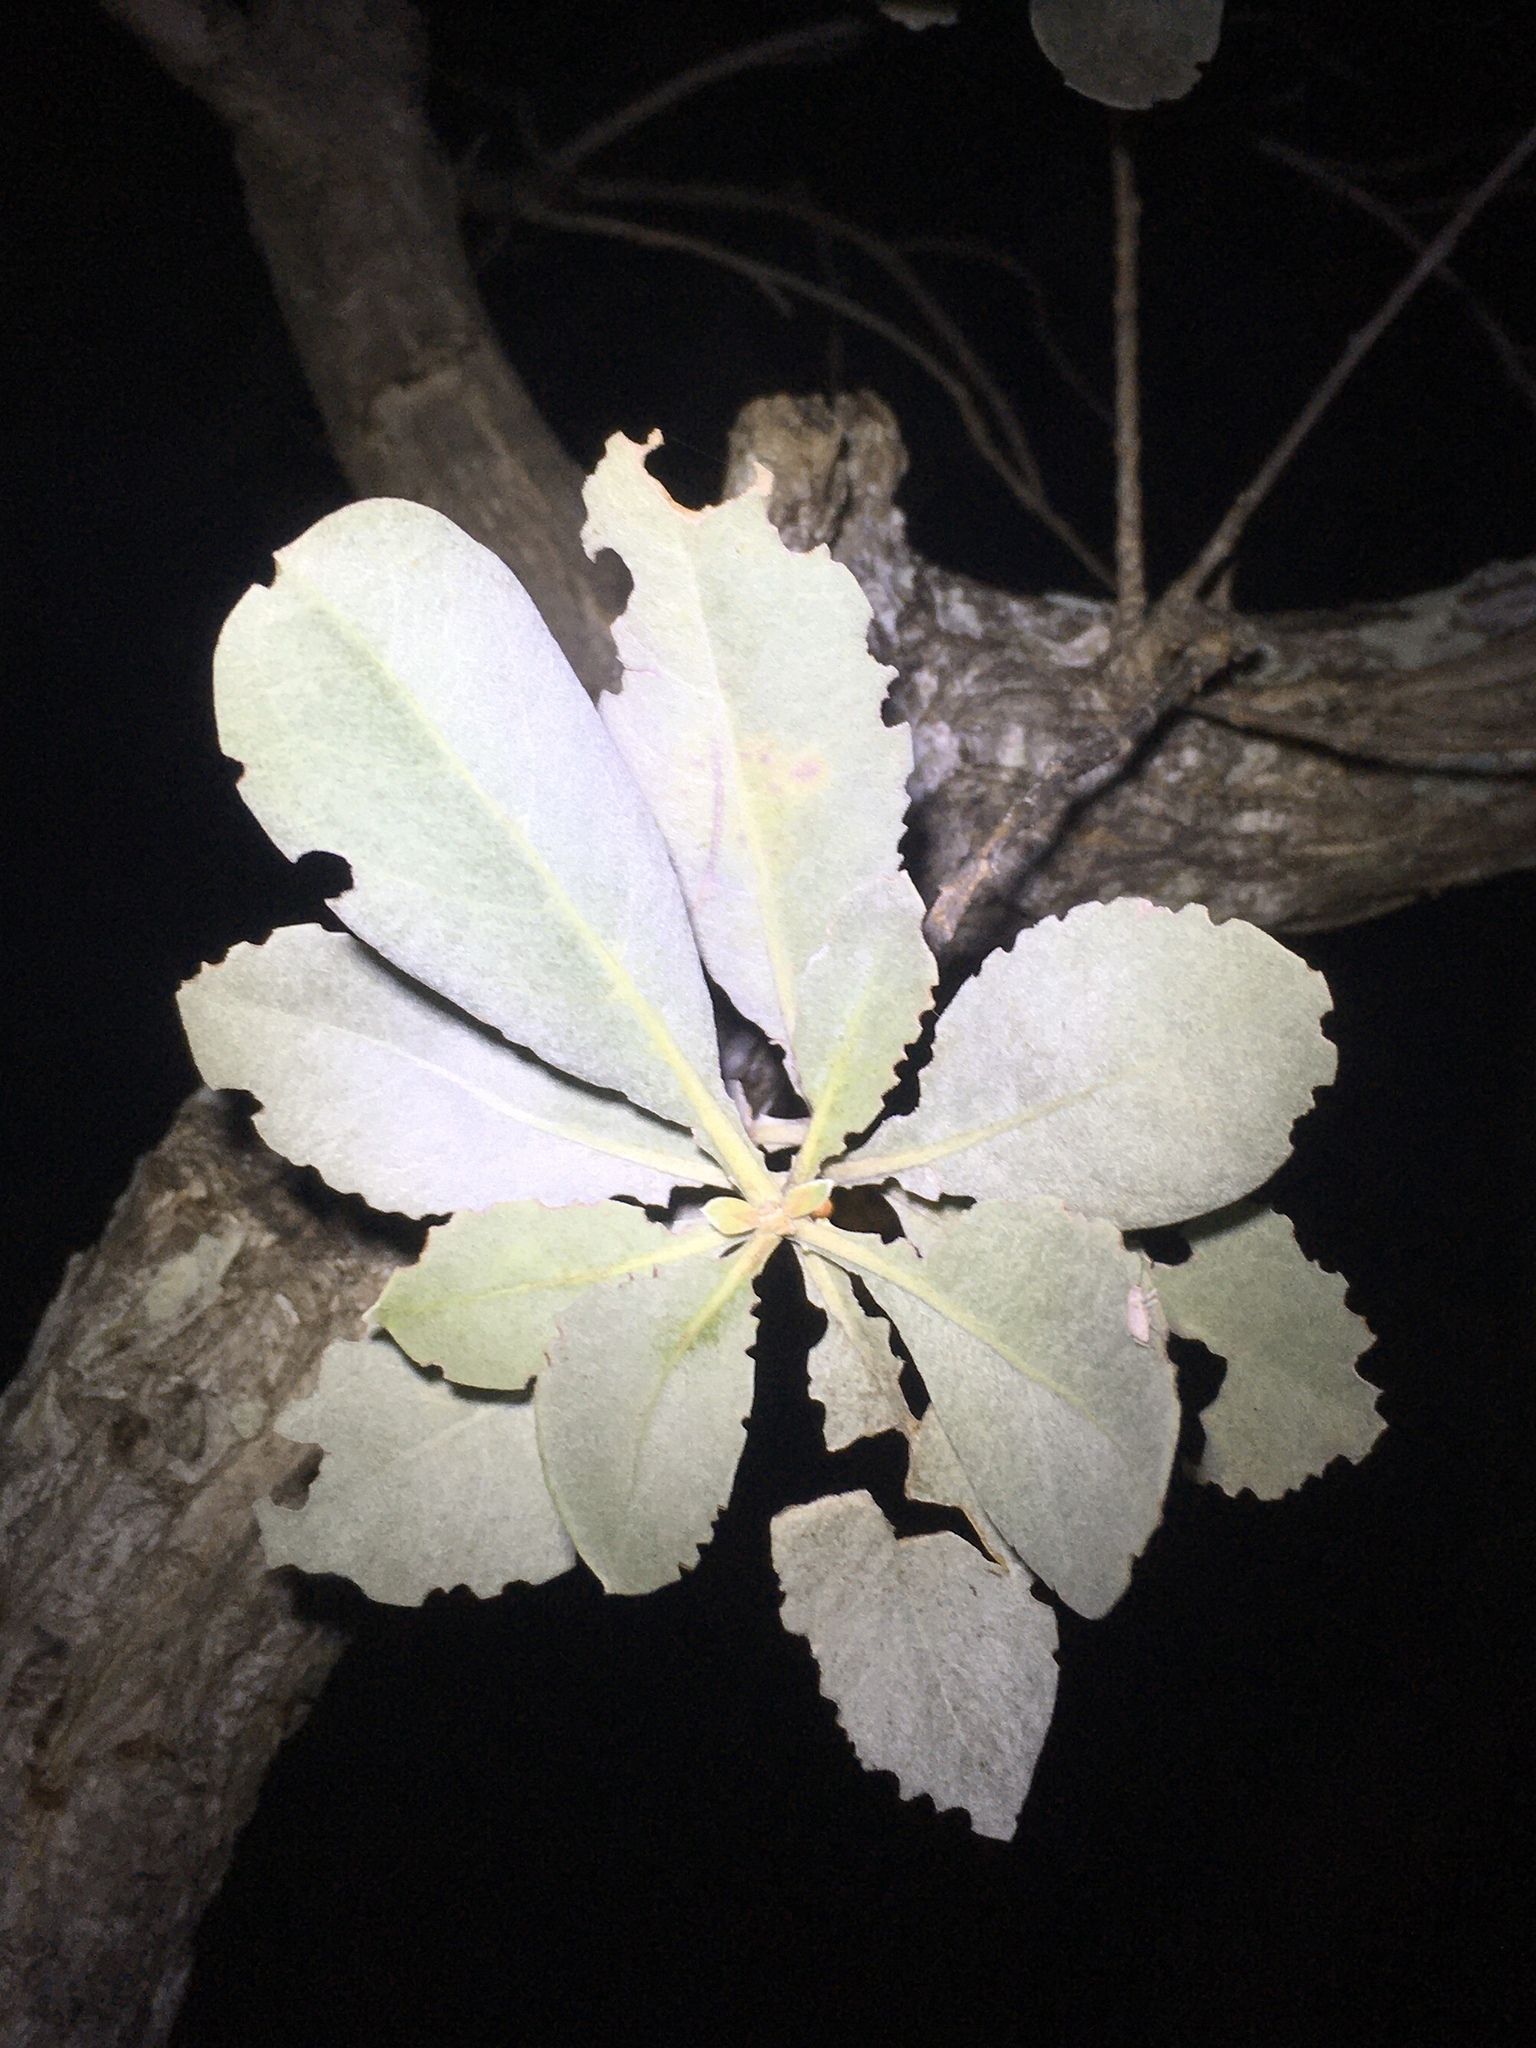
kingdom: Plantae
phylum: Tracheophyta
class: Magnoliopsida
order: Myrtales
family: Combretaceae
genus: Conocarpus
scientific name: Conocarpus erectus
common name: Button mangrove
